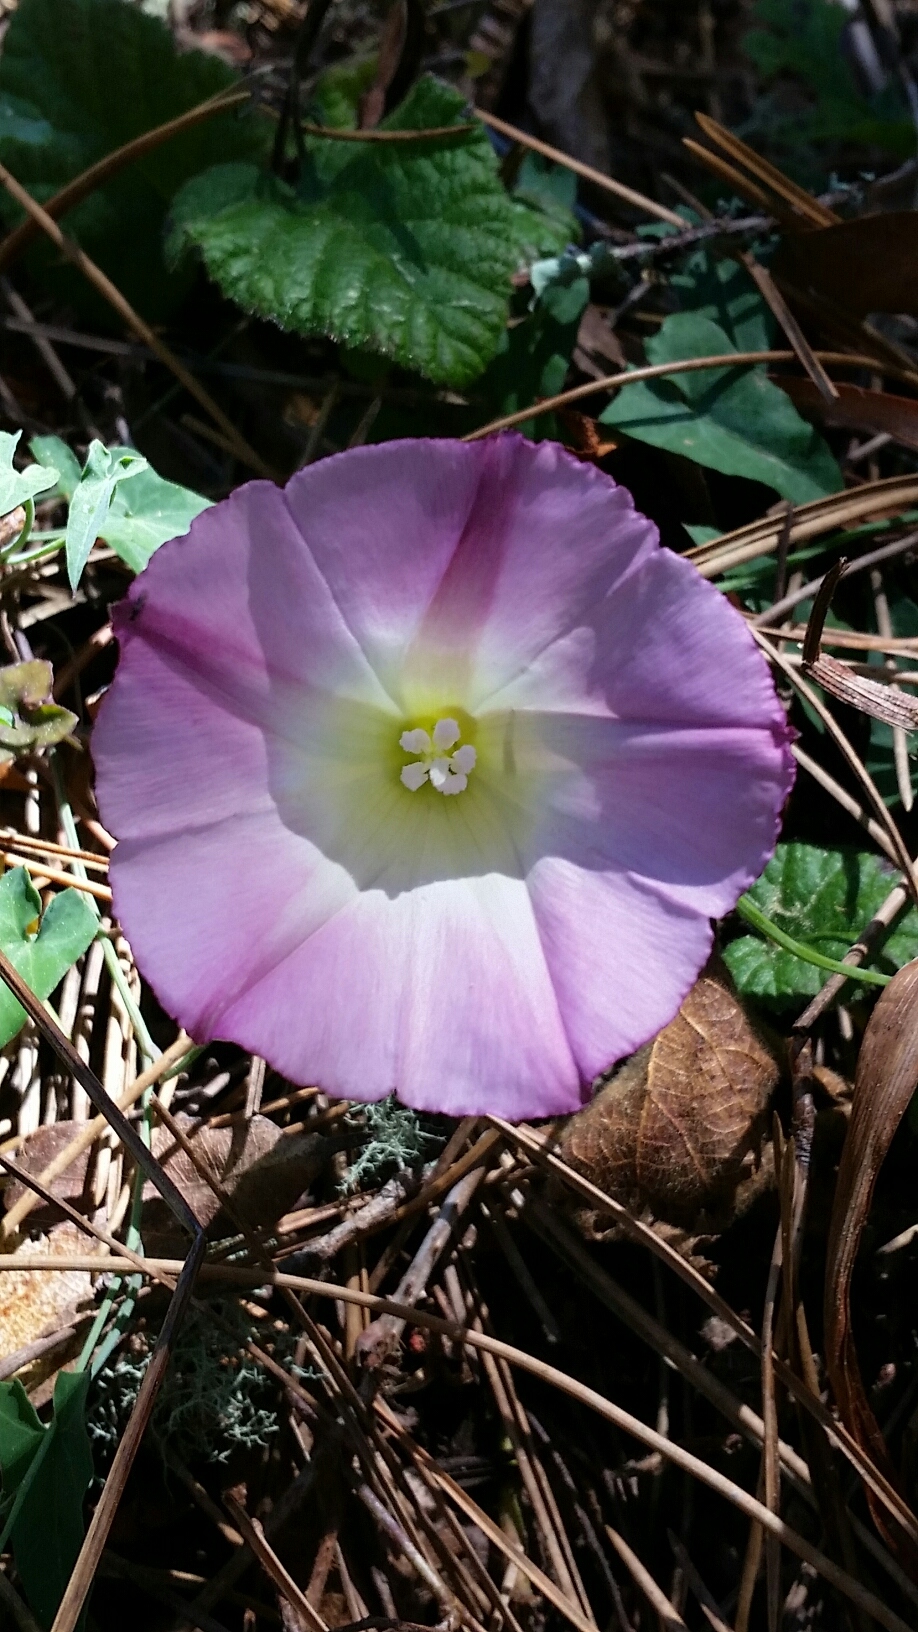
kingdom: Plantae
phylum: Tracheophyta
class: Magnoliopsida
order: Solanales
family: Convolvulaceae
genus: Calystegia
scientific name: Calystegia purpurata
